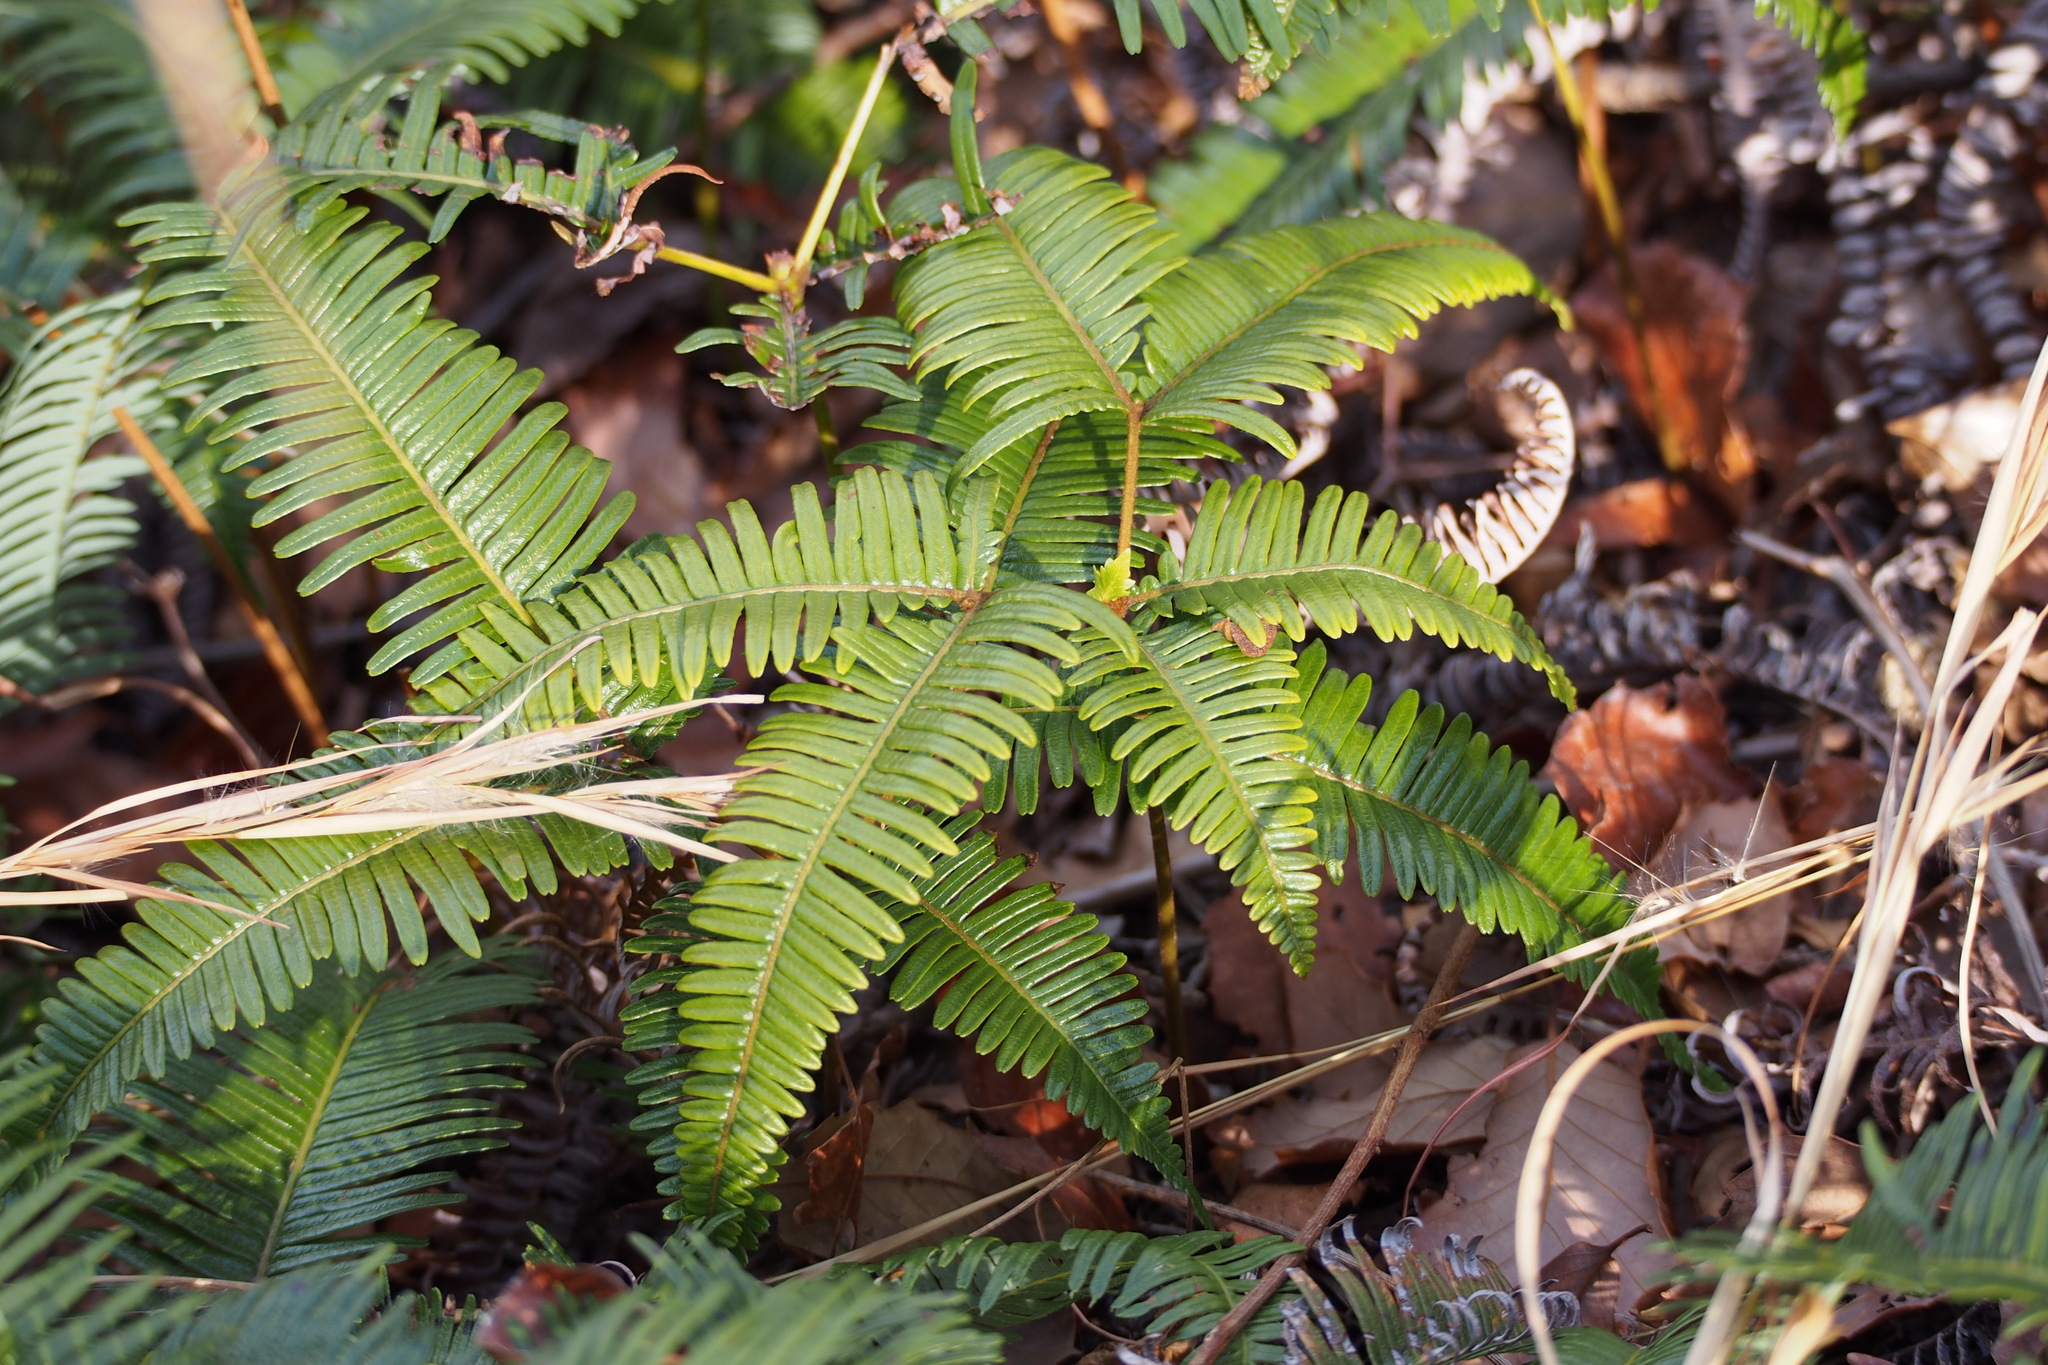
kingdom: Plantae
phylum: Tracheophyta
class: Polypodiopsida
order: Gleicheniales
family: Gleicheniaceae
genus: Dicranopteris
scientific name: Dicranopteris linearis
